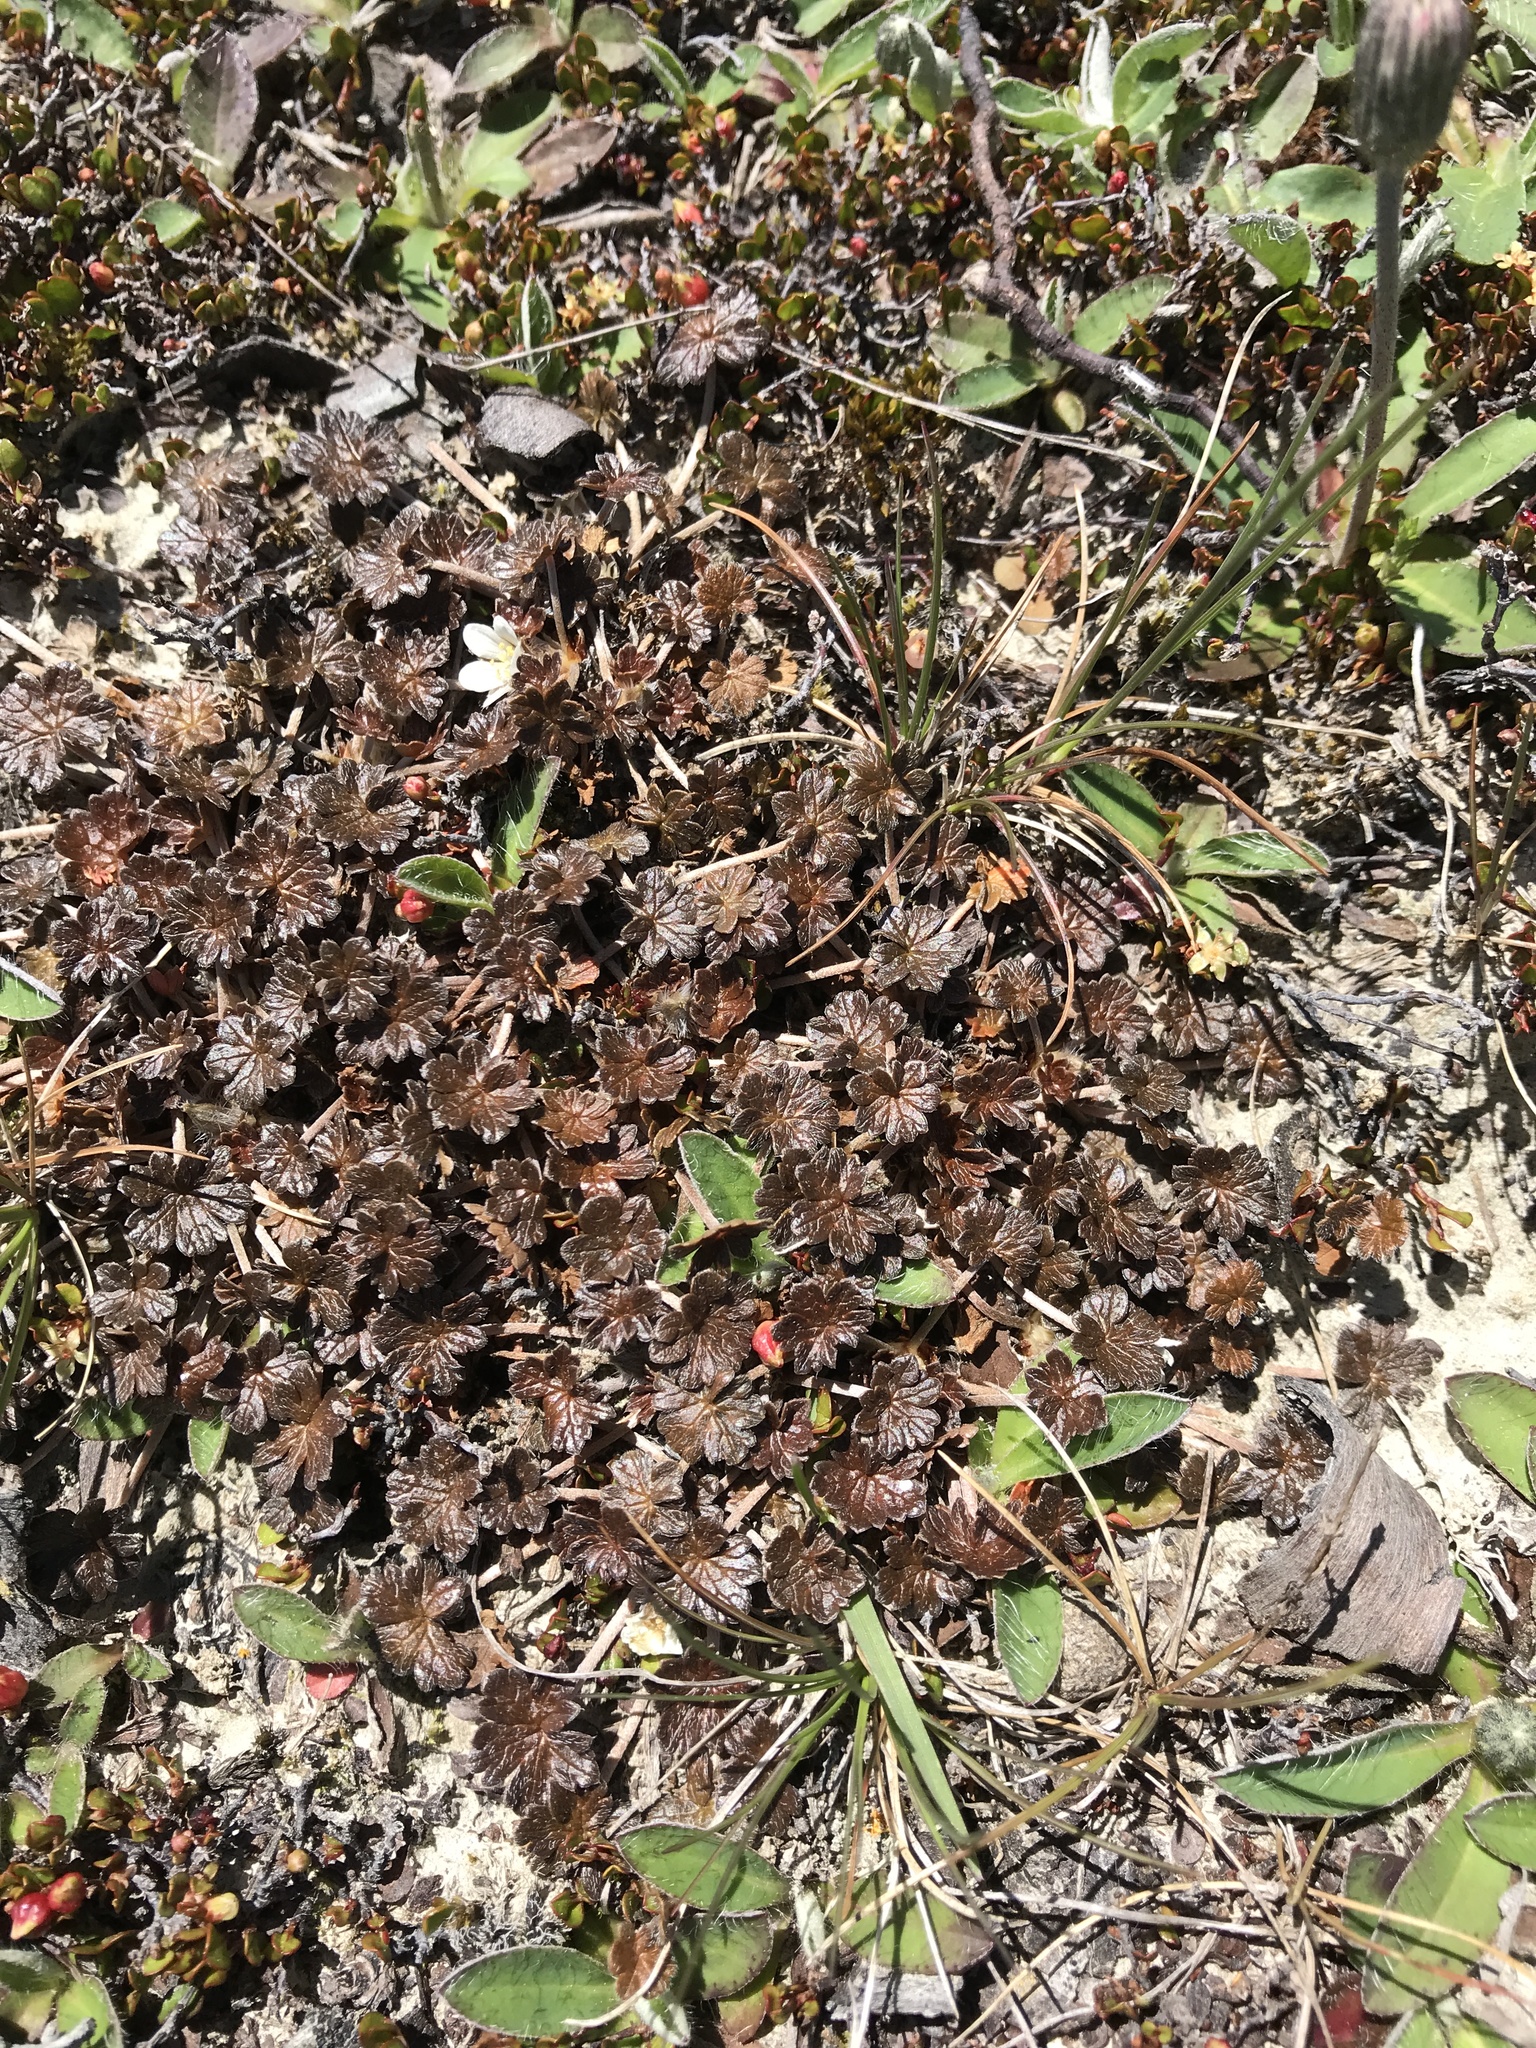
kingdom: Plantae
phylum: Tracheophyta
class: Magnoliopsida
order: Geraniales
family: Geraniaceae
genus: Geranium
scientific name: Geranium brevicaule
